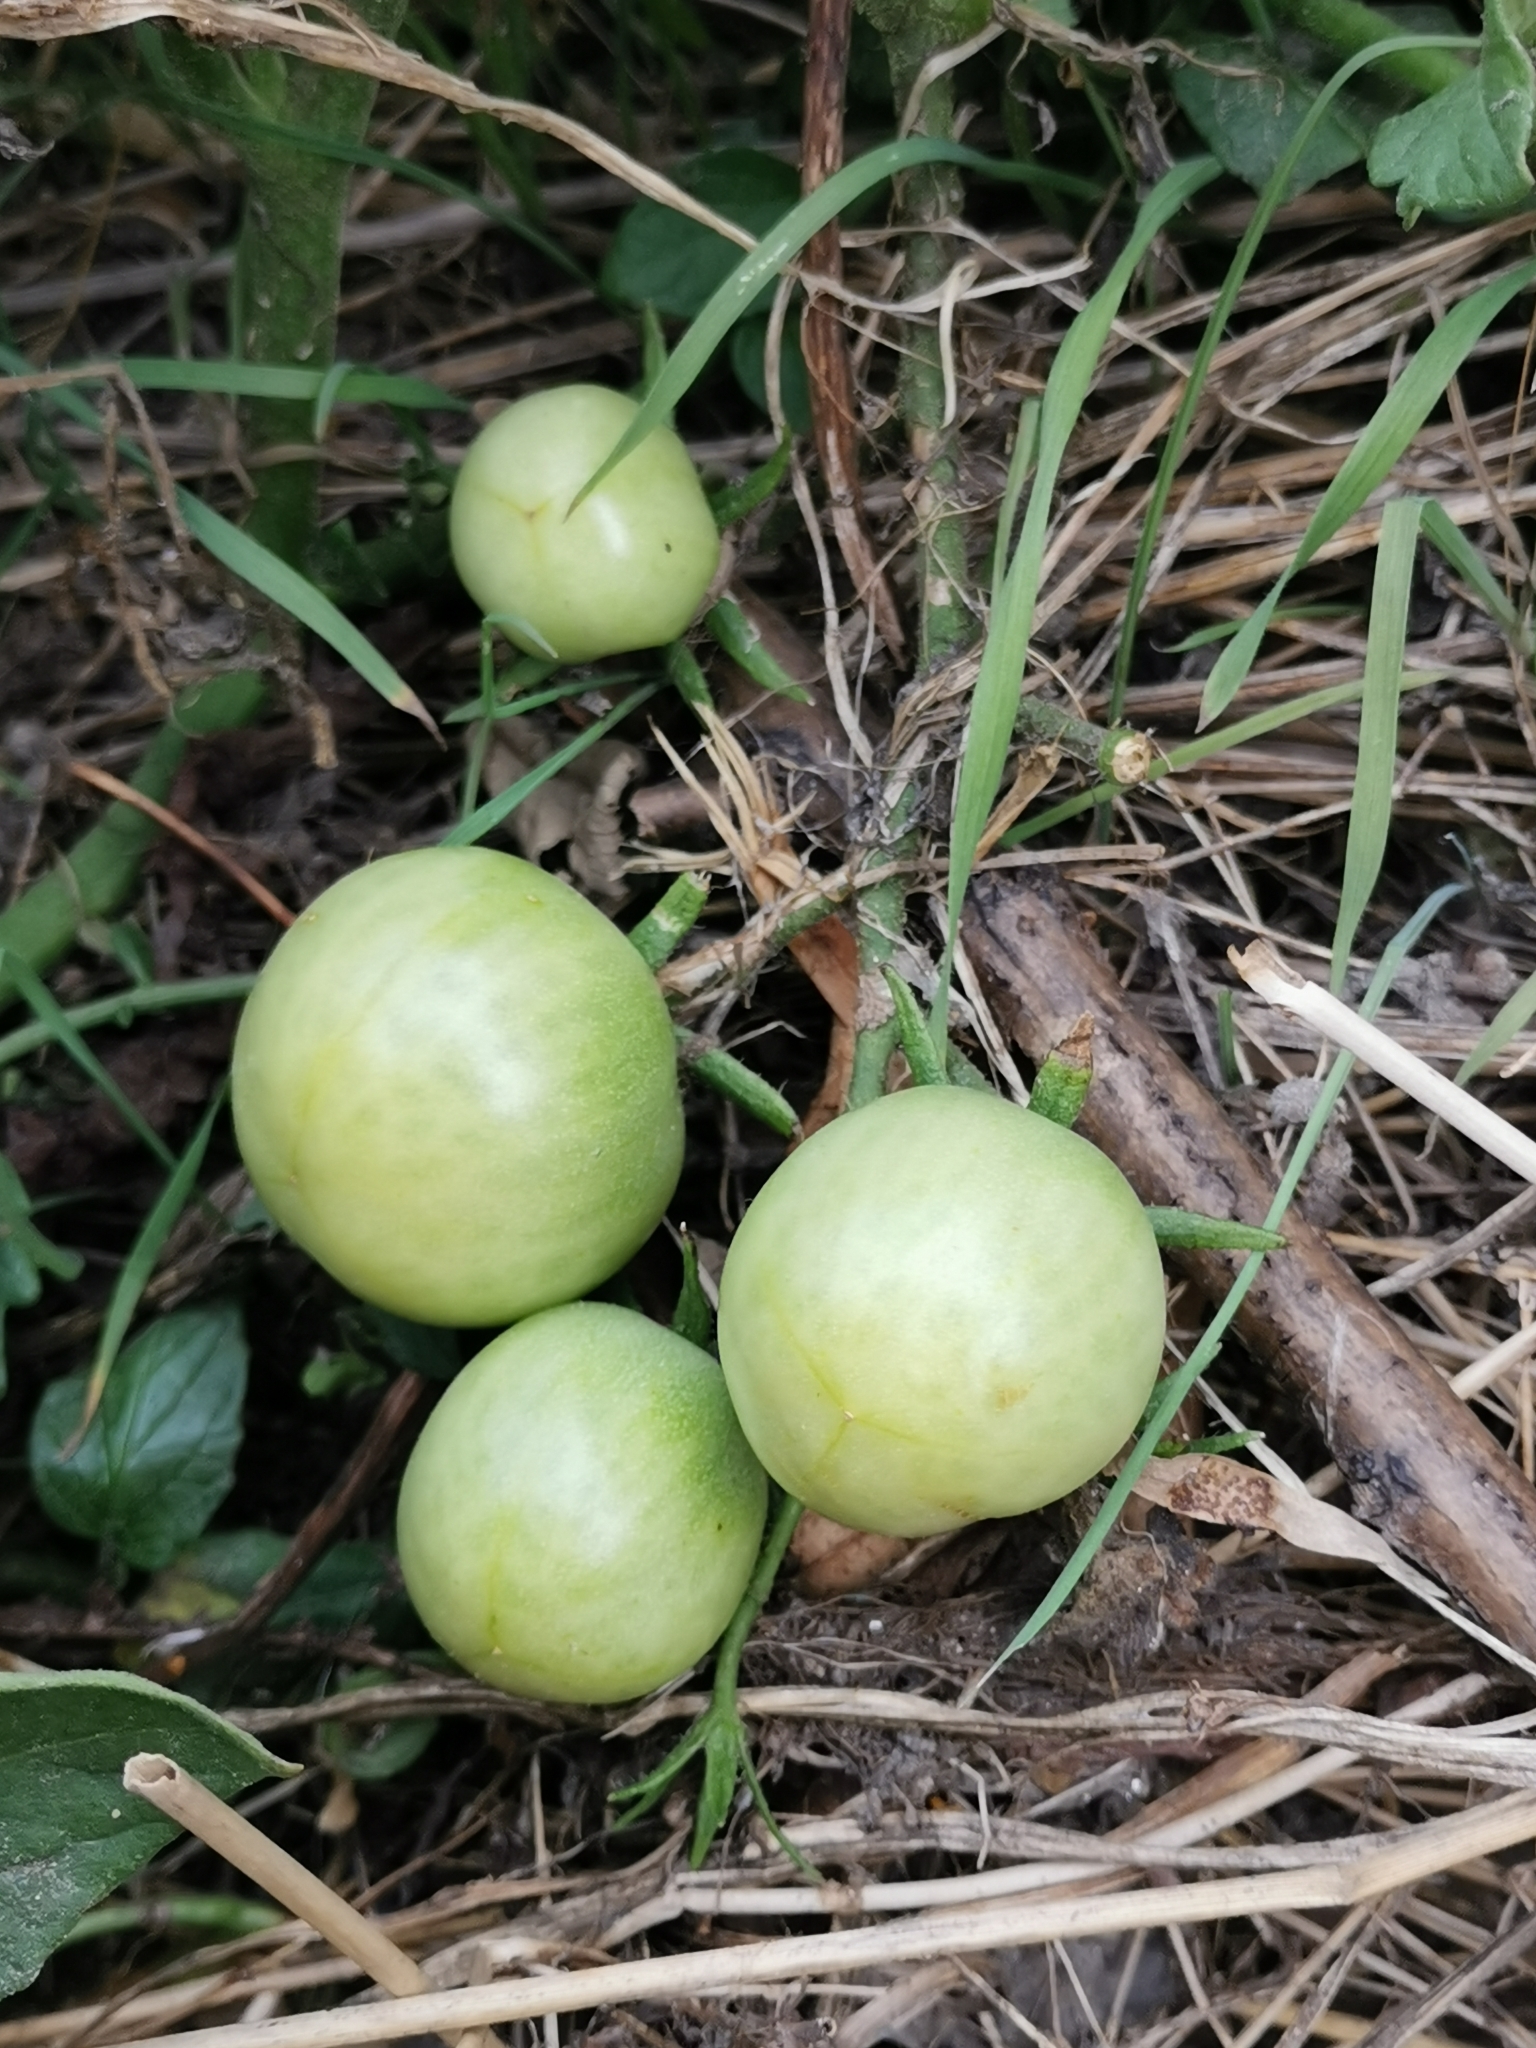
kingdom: Plantae
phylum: Tracheophyta
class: Magnoliopsida
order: Solanales
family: Solanaceae
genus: Solanum
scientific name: Solanum lycopersicum
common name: Garden tomato
